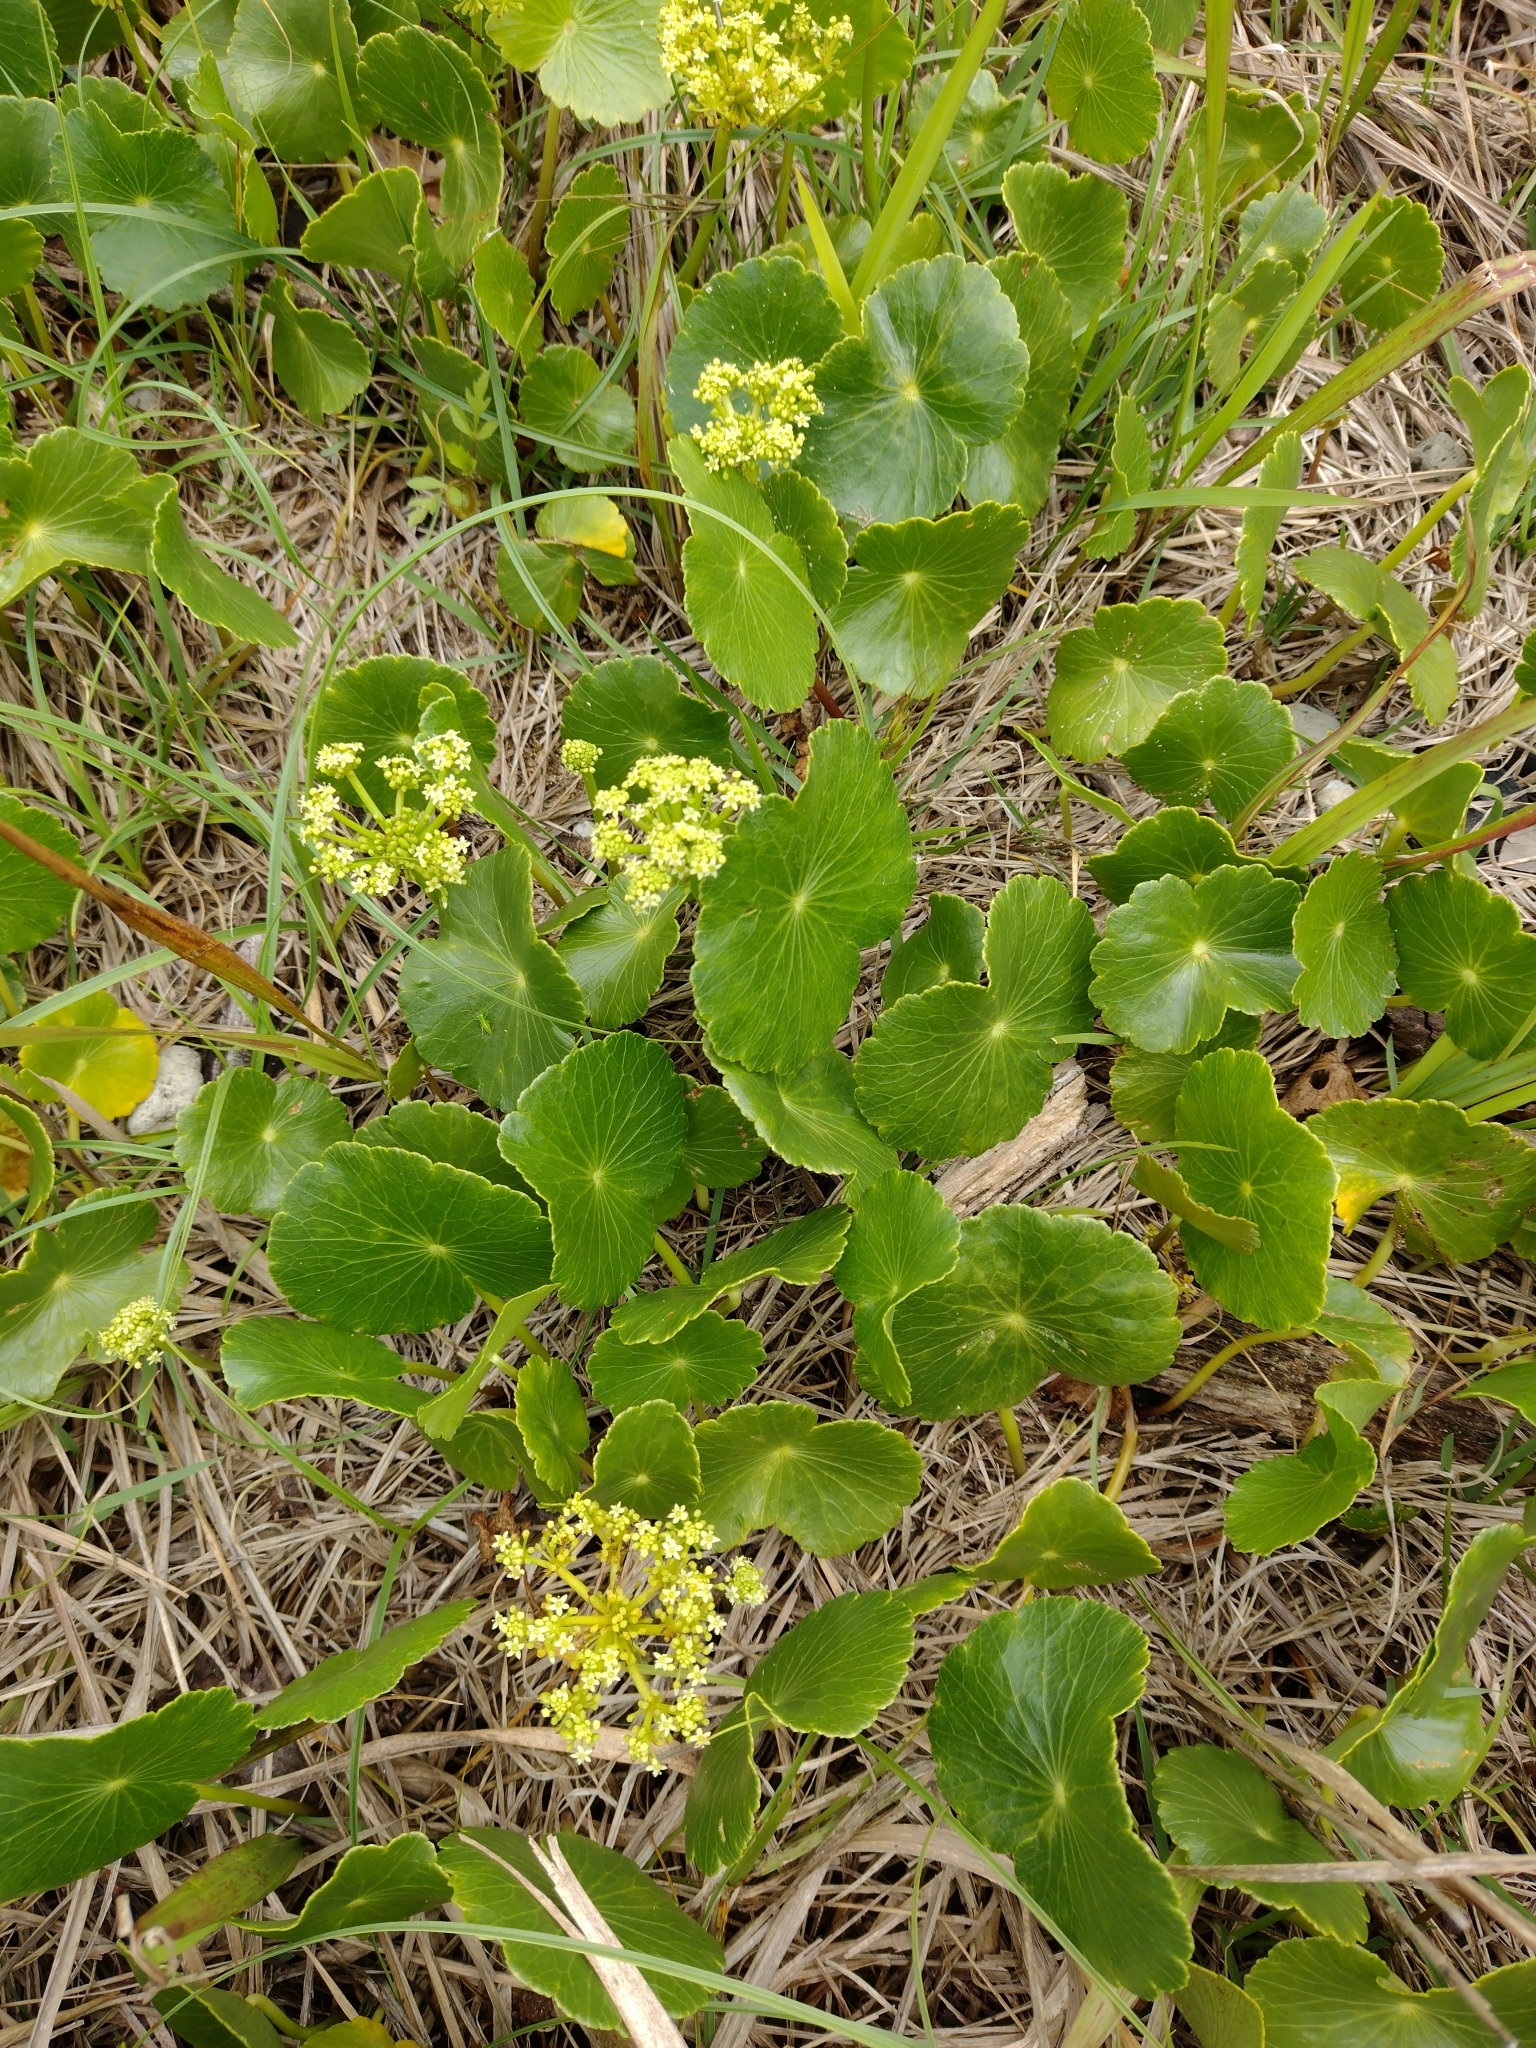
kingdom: Plantae
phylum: Tracheophyta
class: Magnoliopsida
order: Apiales
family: Araliaceae
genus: Hydrocotyle
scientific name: Hydrocotyle bonariensis
